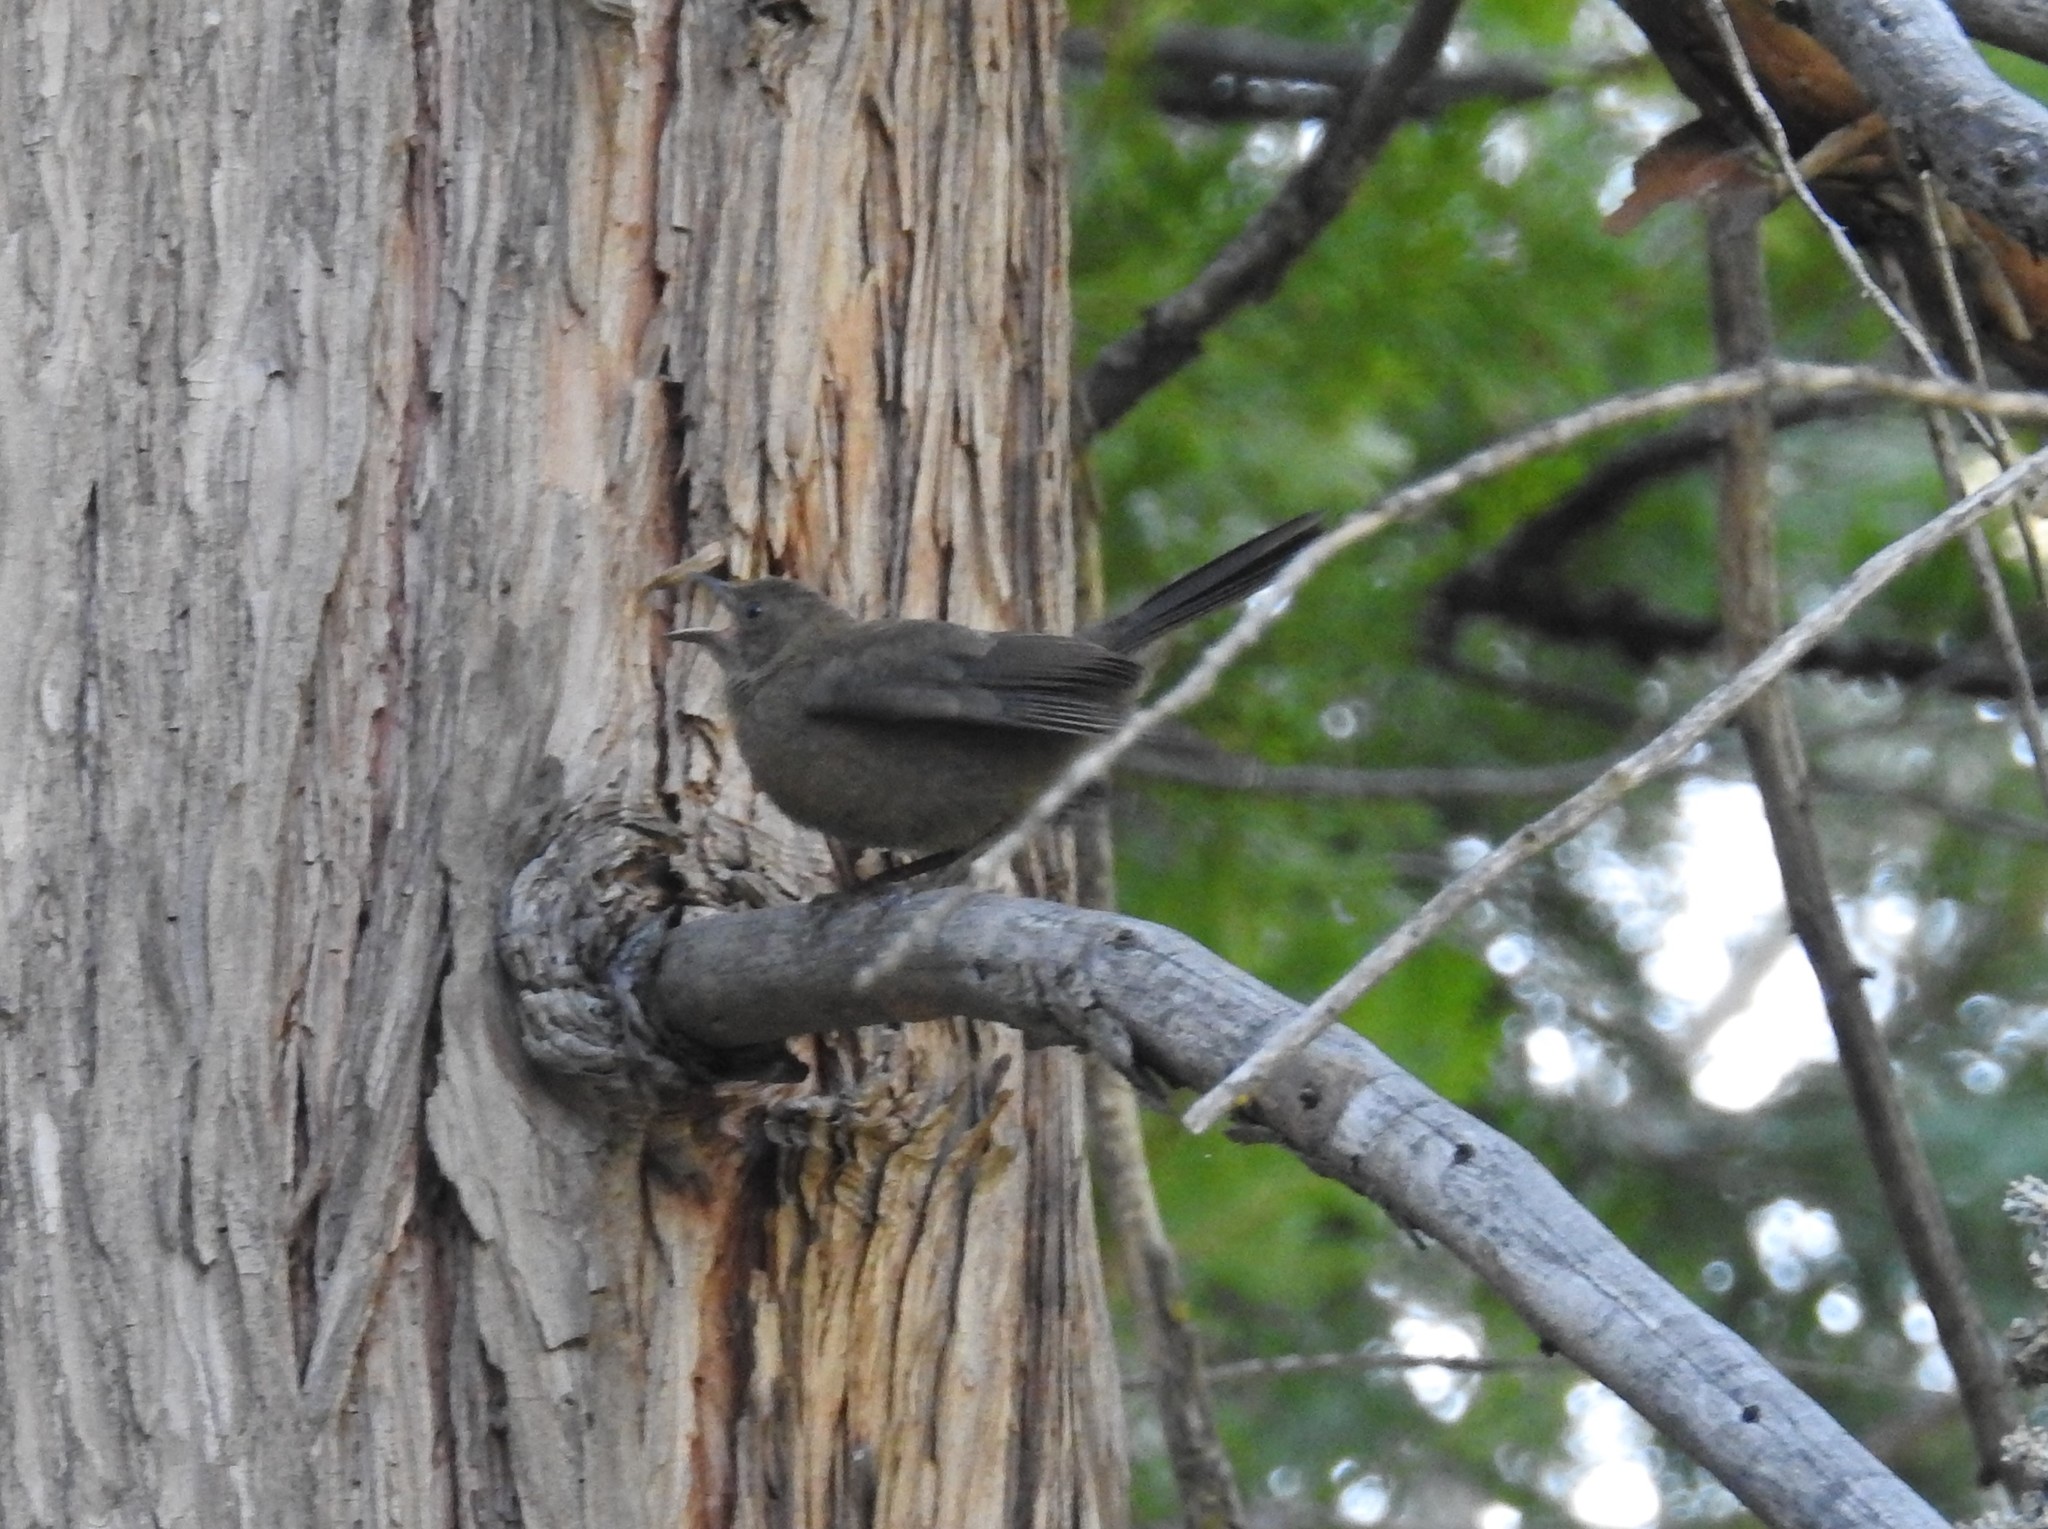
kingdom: Animalia
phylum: Chordata
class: Aves
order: Passeriformes
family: Icteridae
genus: Euphagus
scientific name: Euphagus cyanocephalus
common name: Brewer's blackbird
